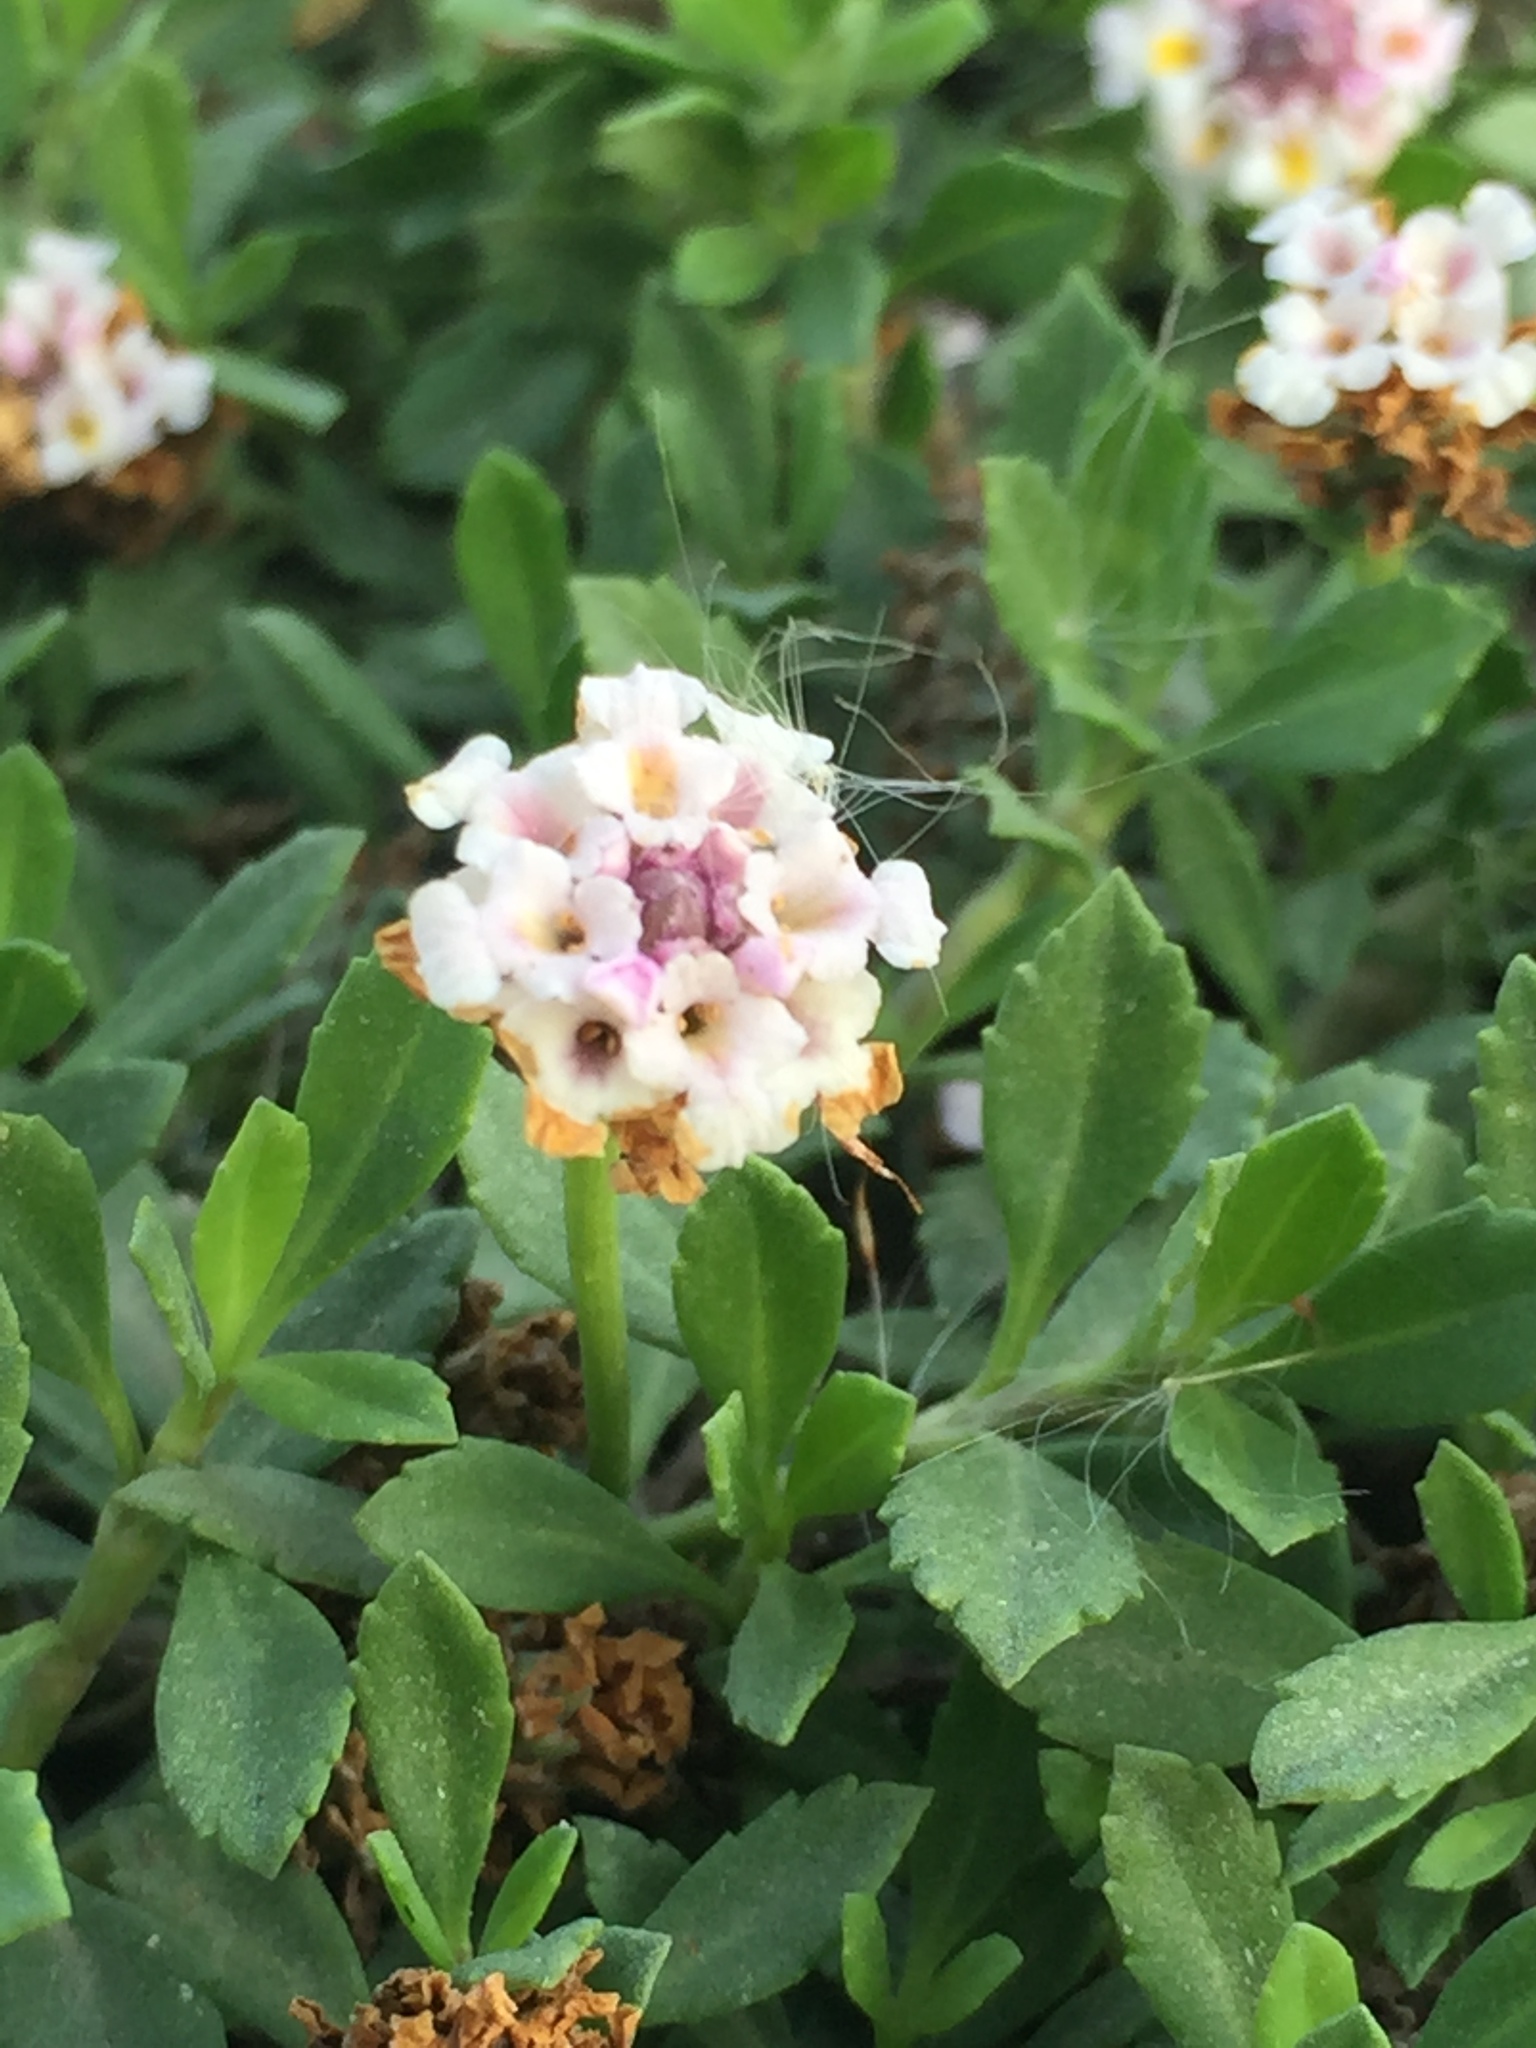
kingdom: Plantae
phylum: Tracheophyta
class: Magnoliopsida
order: Lamiales
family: Verbenaceae
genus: Phyla
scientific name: Phyla nodiflora
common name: Frogfruit
